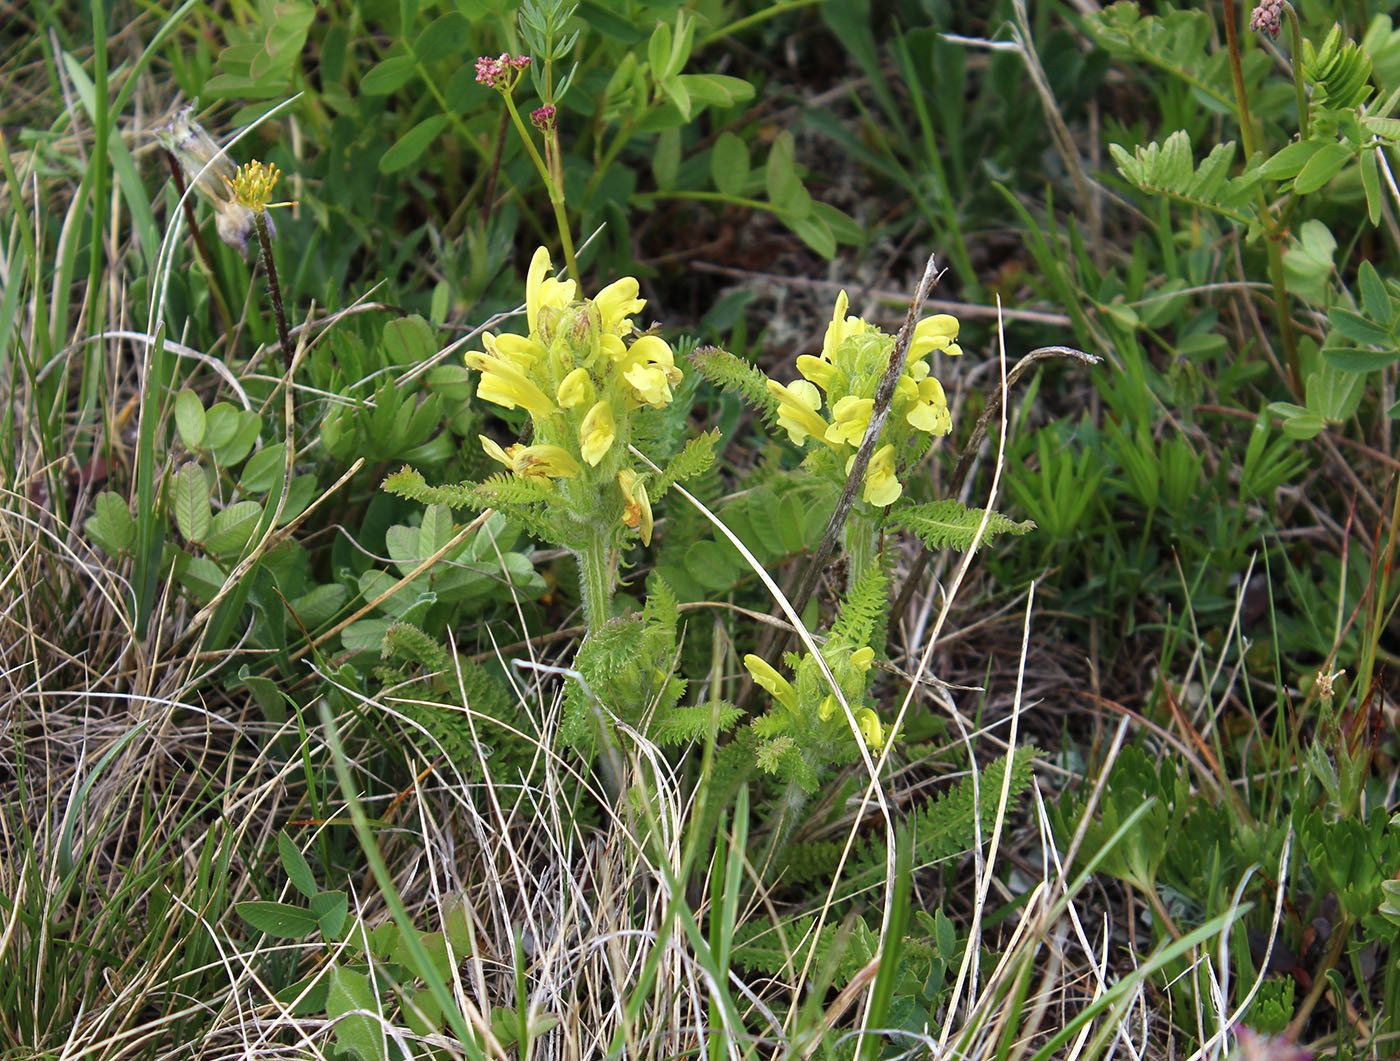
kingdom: Plantae
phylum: Tracheophyta
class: Magnoliopsida
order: Lamiales
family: Orobanchaceae
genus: Pedicularis
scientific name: Pedicularis sibthorpii
